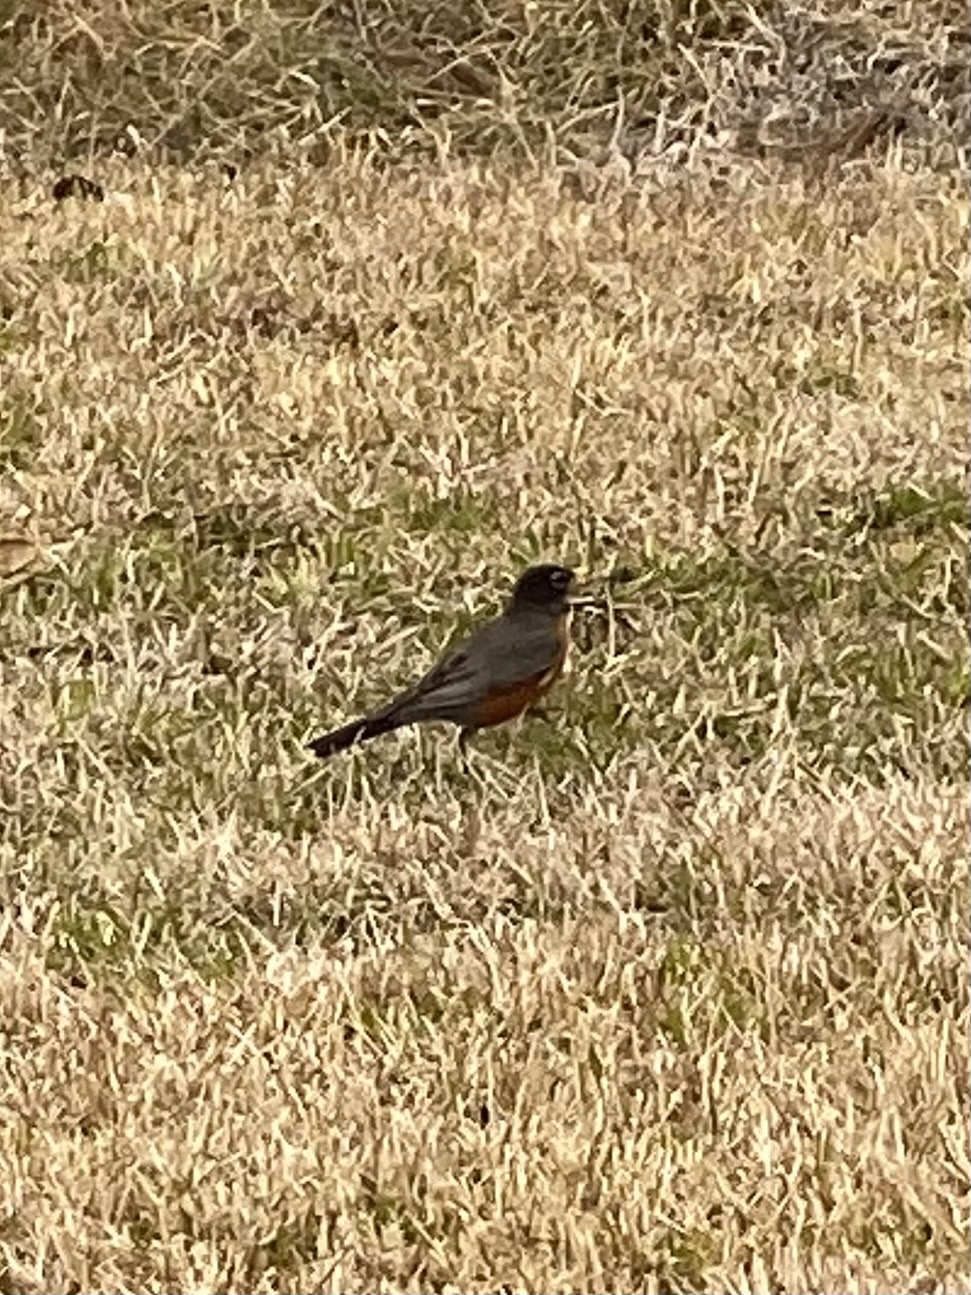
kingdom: Animalia
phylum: Chordata
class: Aves
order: Passeriformes
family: Turdidae
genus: Turdus
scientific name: Turdus migratorius
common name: American robin
